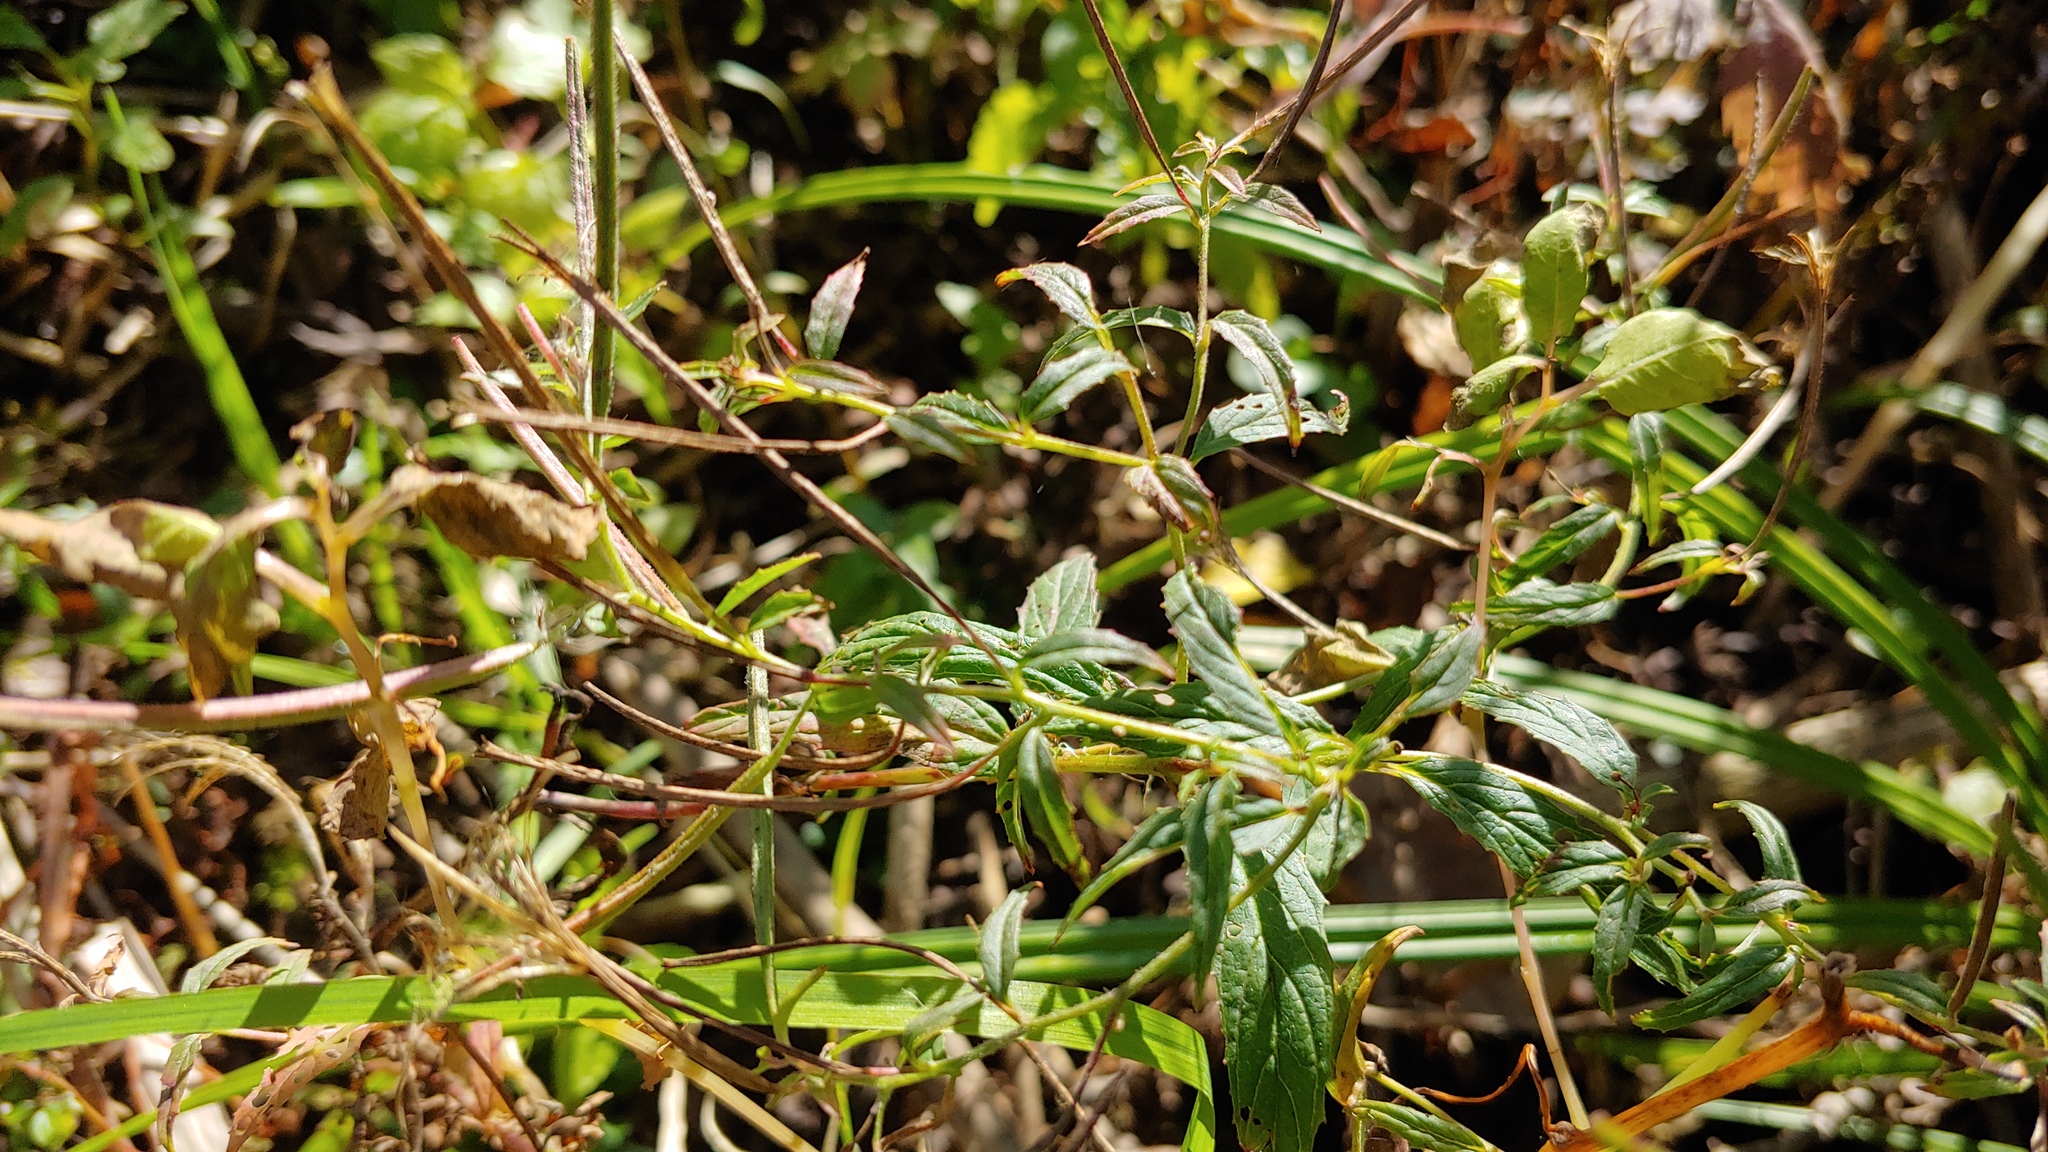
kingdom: Plantae
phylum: Tracheophyta
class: Magnoliopsida
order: Myrtales
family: Onagraceae
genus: Epilobium
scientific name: Epilobium ciliatum
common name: American willowherb
